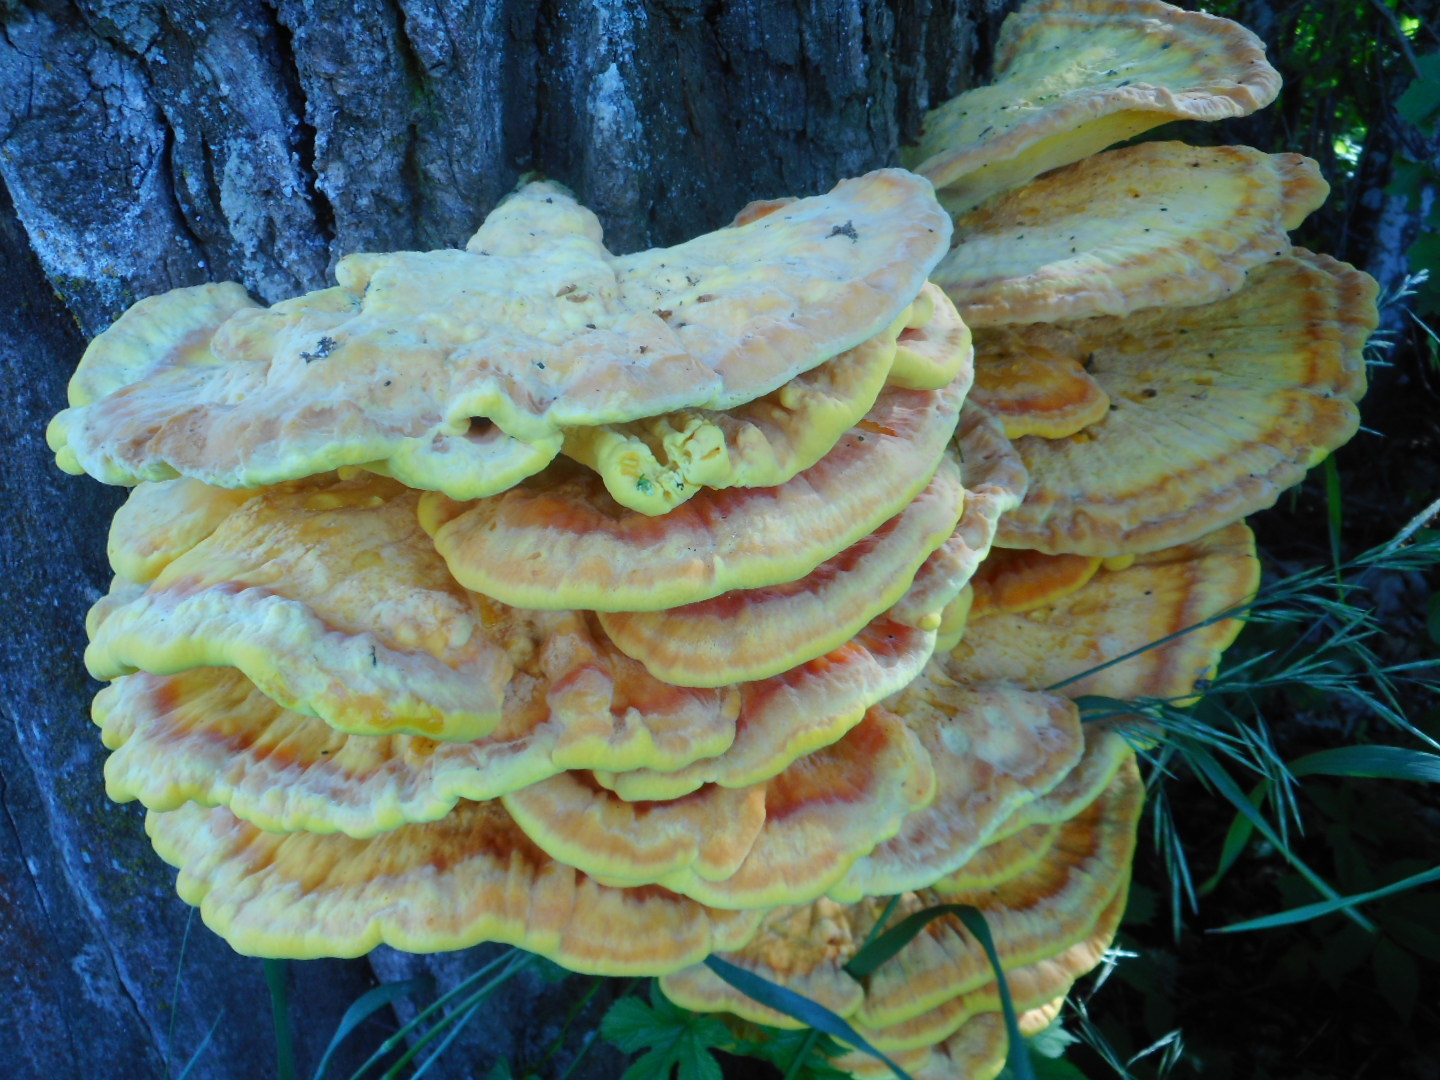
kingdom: Fungi
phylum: Basidiomycota
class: Agaricomycetes
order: Polyporales
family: Laetiporaceae
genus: Laetiporus
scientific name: Laetiporus sulphureus
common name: Chicken of the woods
